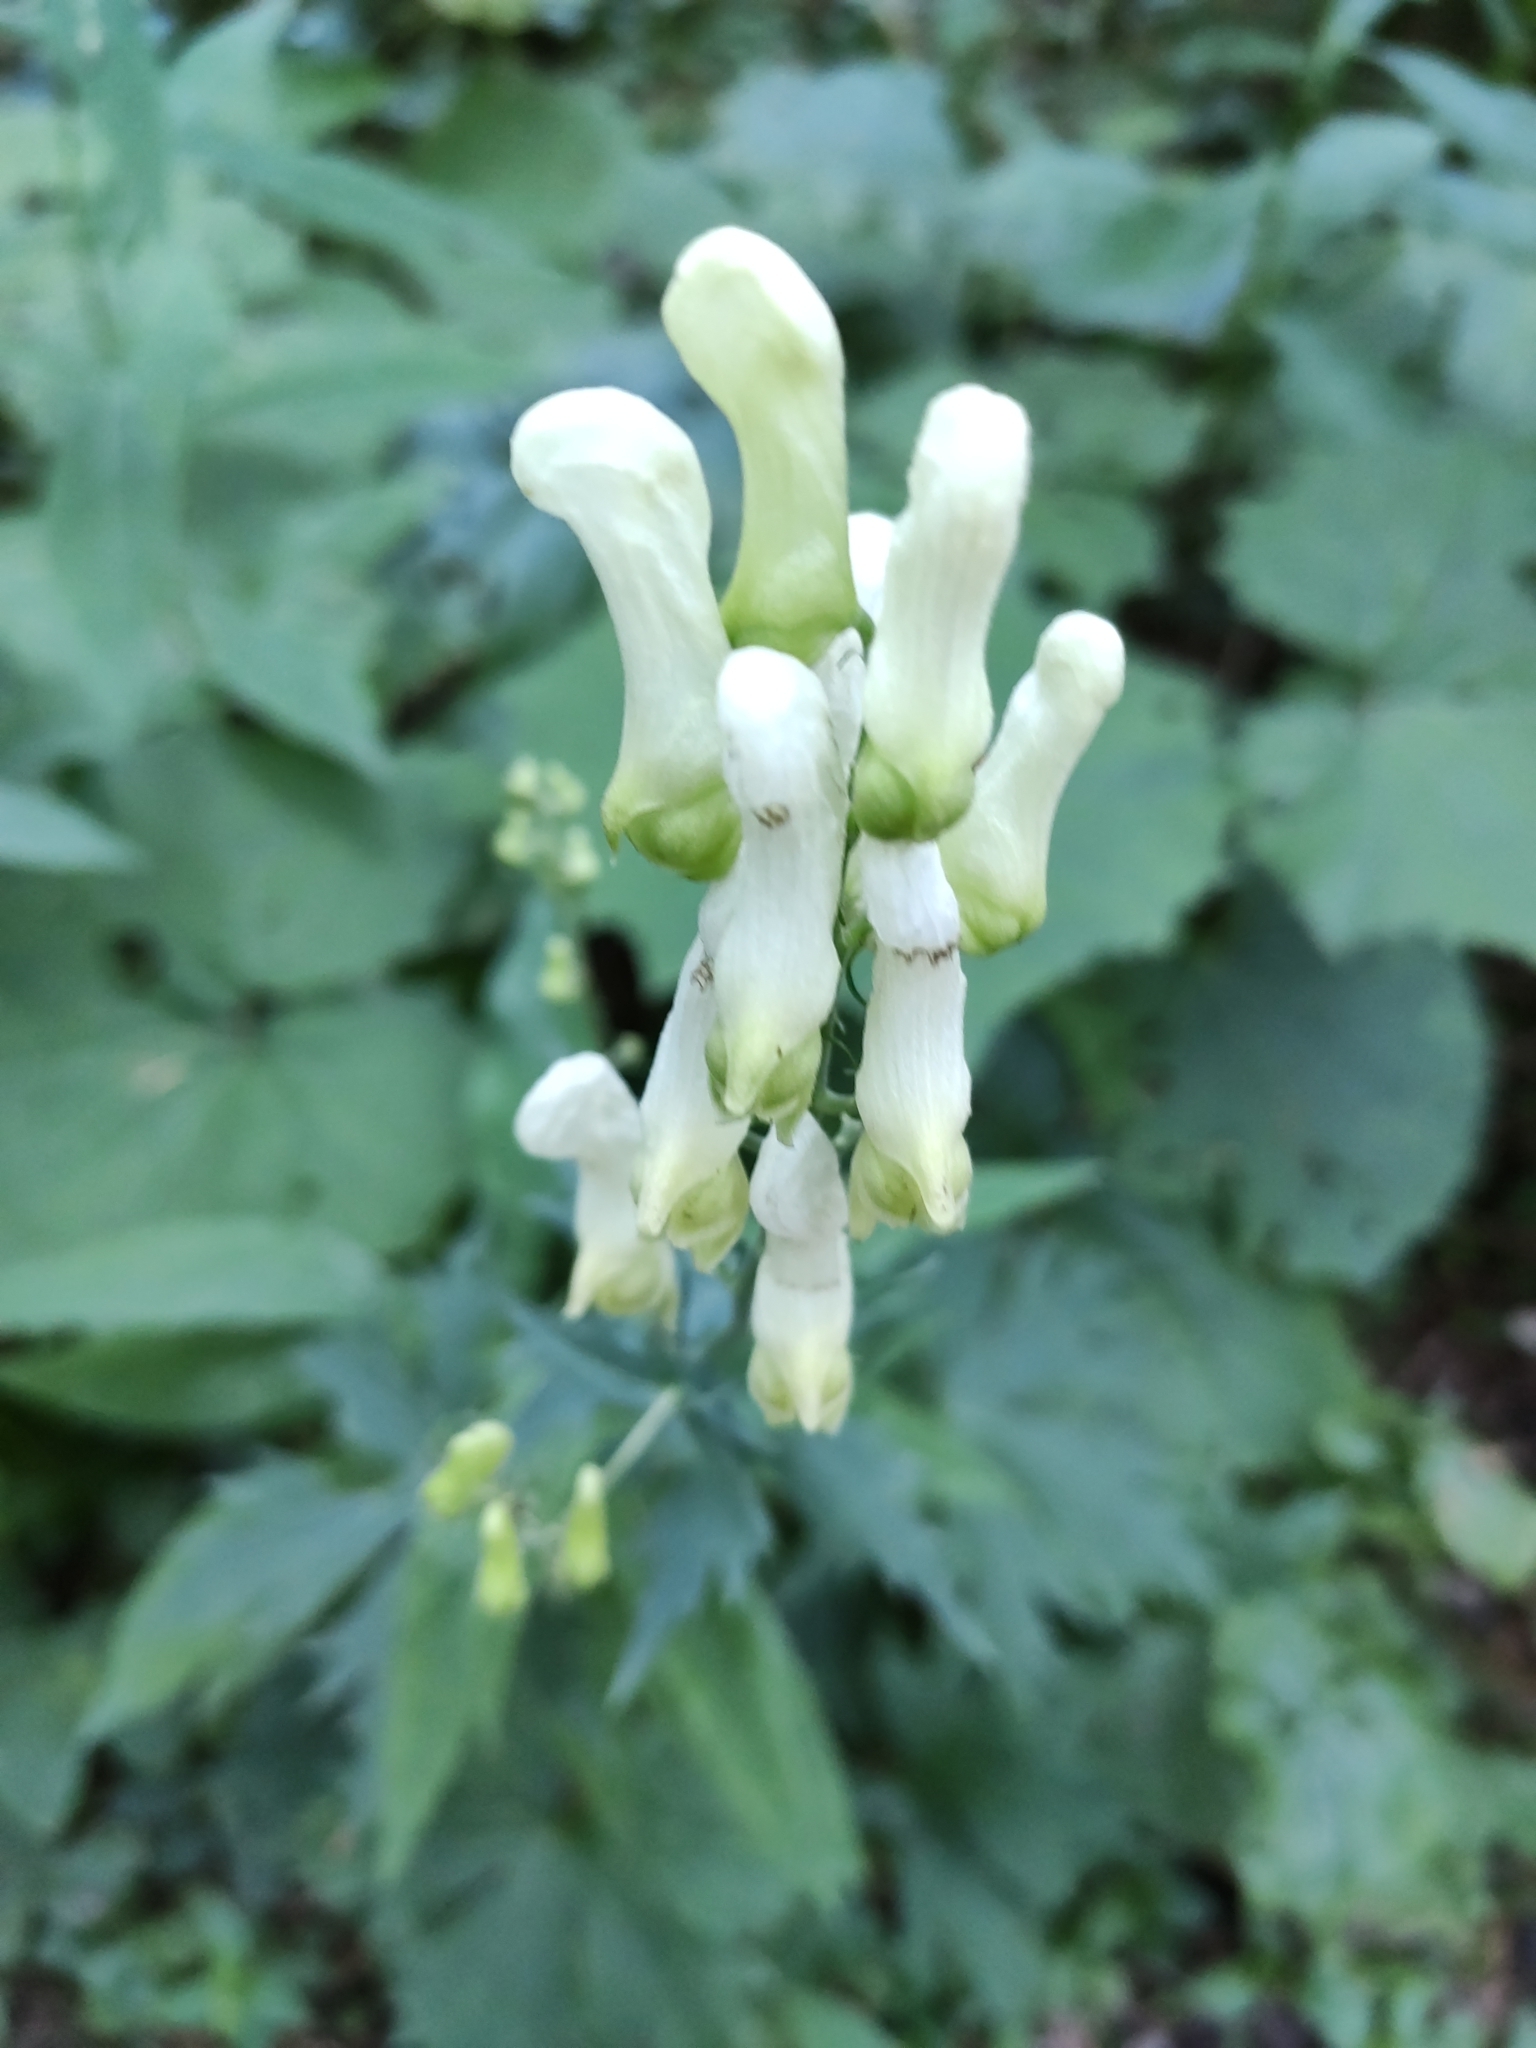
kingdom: Plantae
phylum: Tracheophyta
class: Magnoliopsida
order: Ranunculales
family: Ranunculaceae
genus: Aconitum
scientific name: Aconitum lycoctonum
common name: Wolf's-bane
